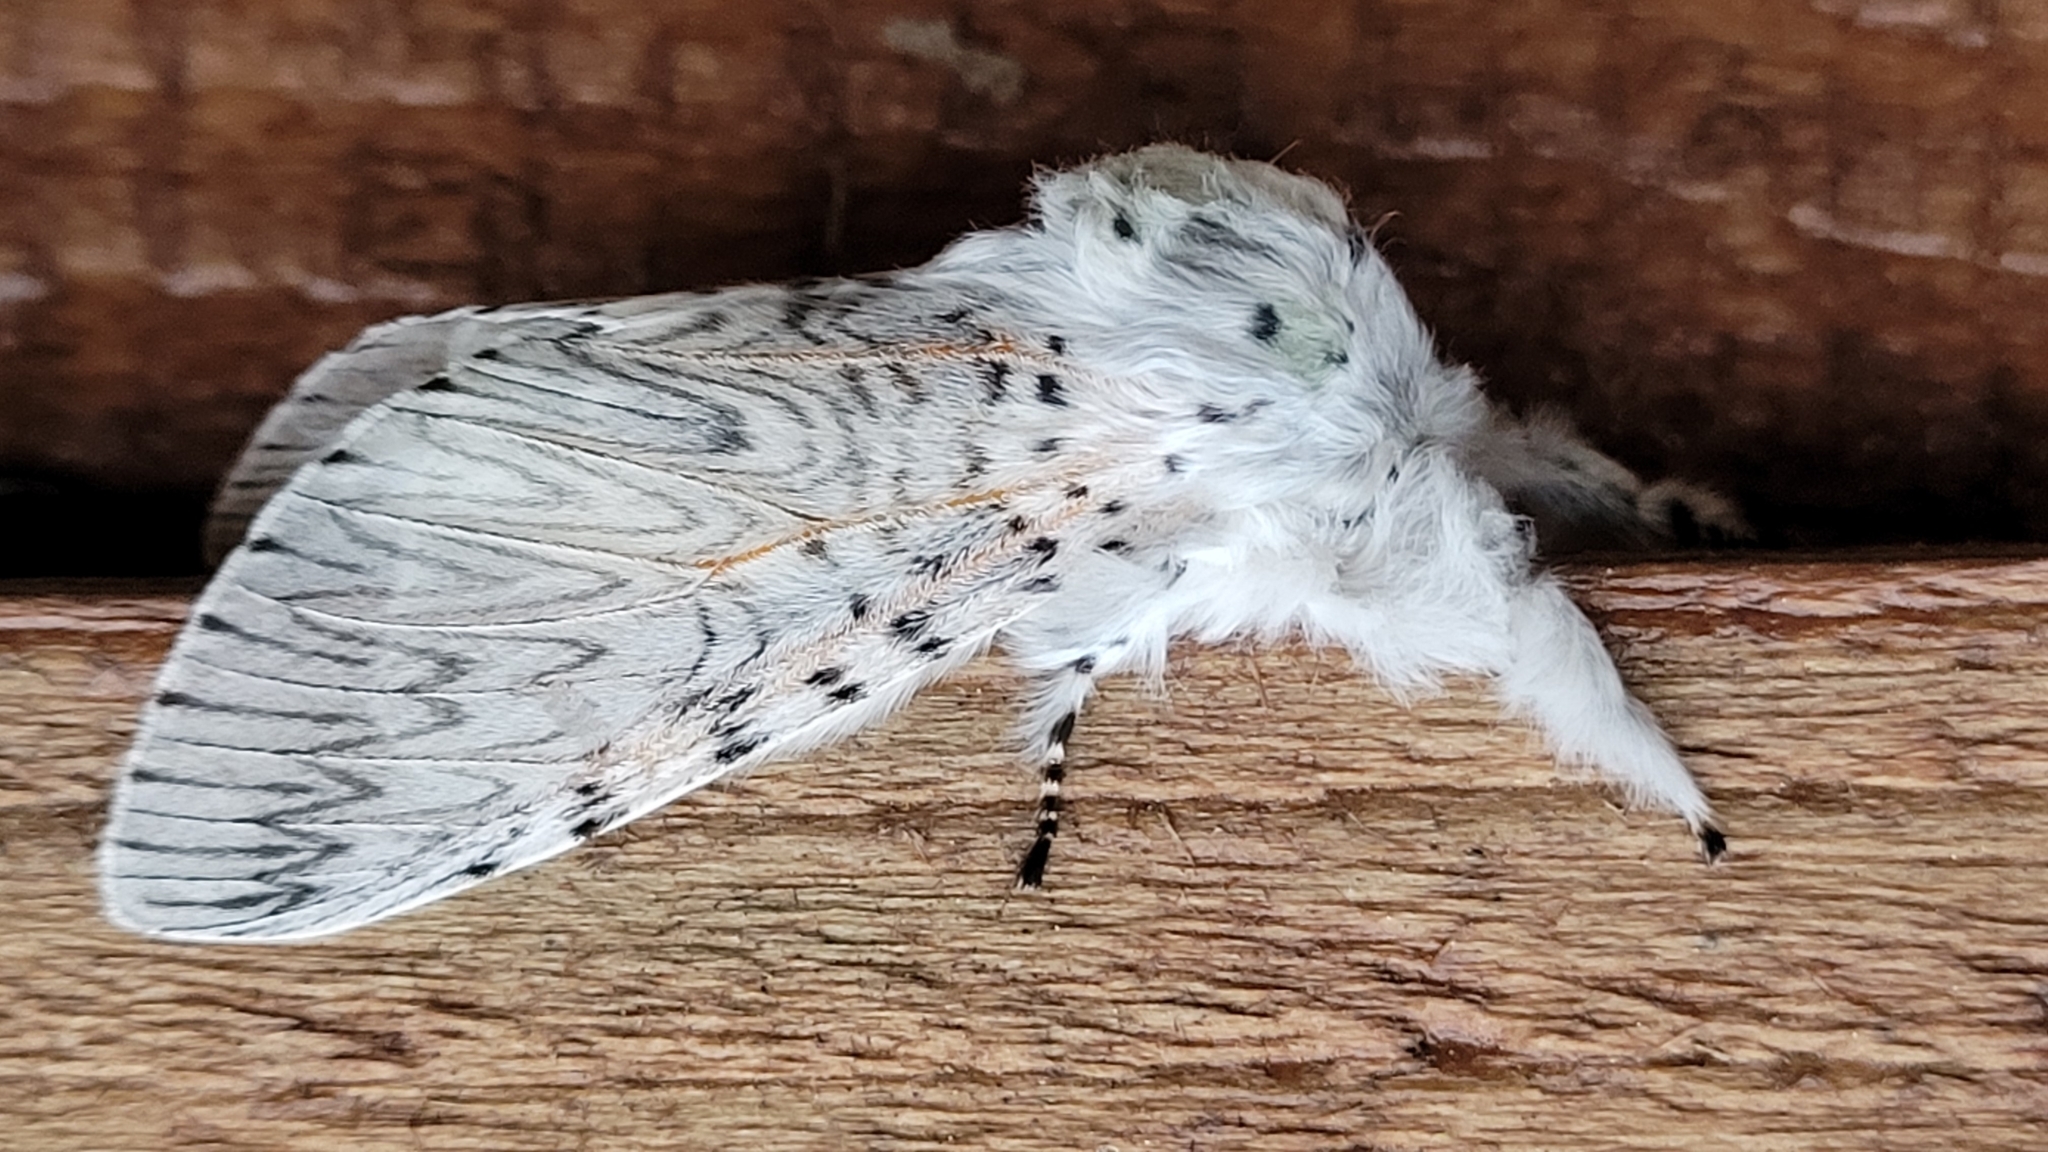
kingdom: Animalia
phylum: Arthropoda
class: Insecta
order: Lepidoptera
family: Notodontidae
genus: Cerura
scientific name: Cerura vinula
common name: Puss moth
